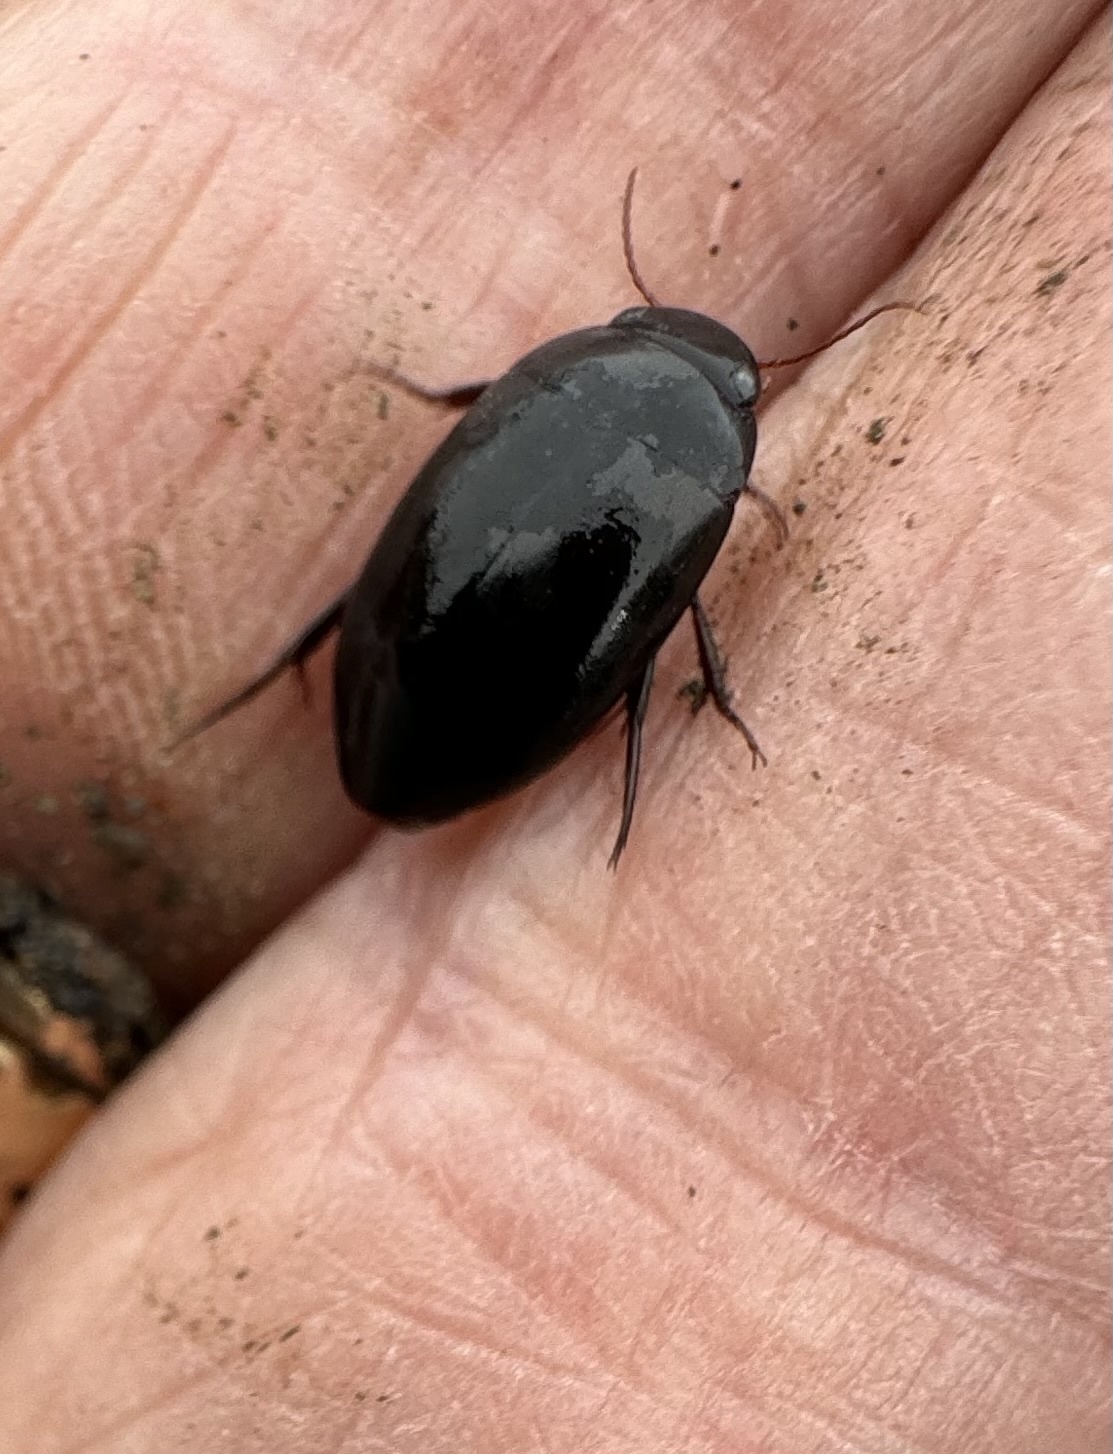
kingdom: Animalia
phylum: Arthropoda
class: Insecta
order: Coleoptera
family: Dytiscidae
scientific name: Dytiscidae
